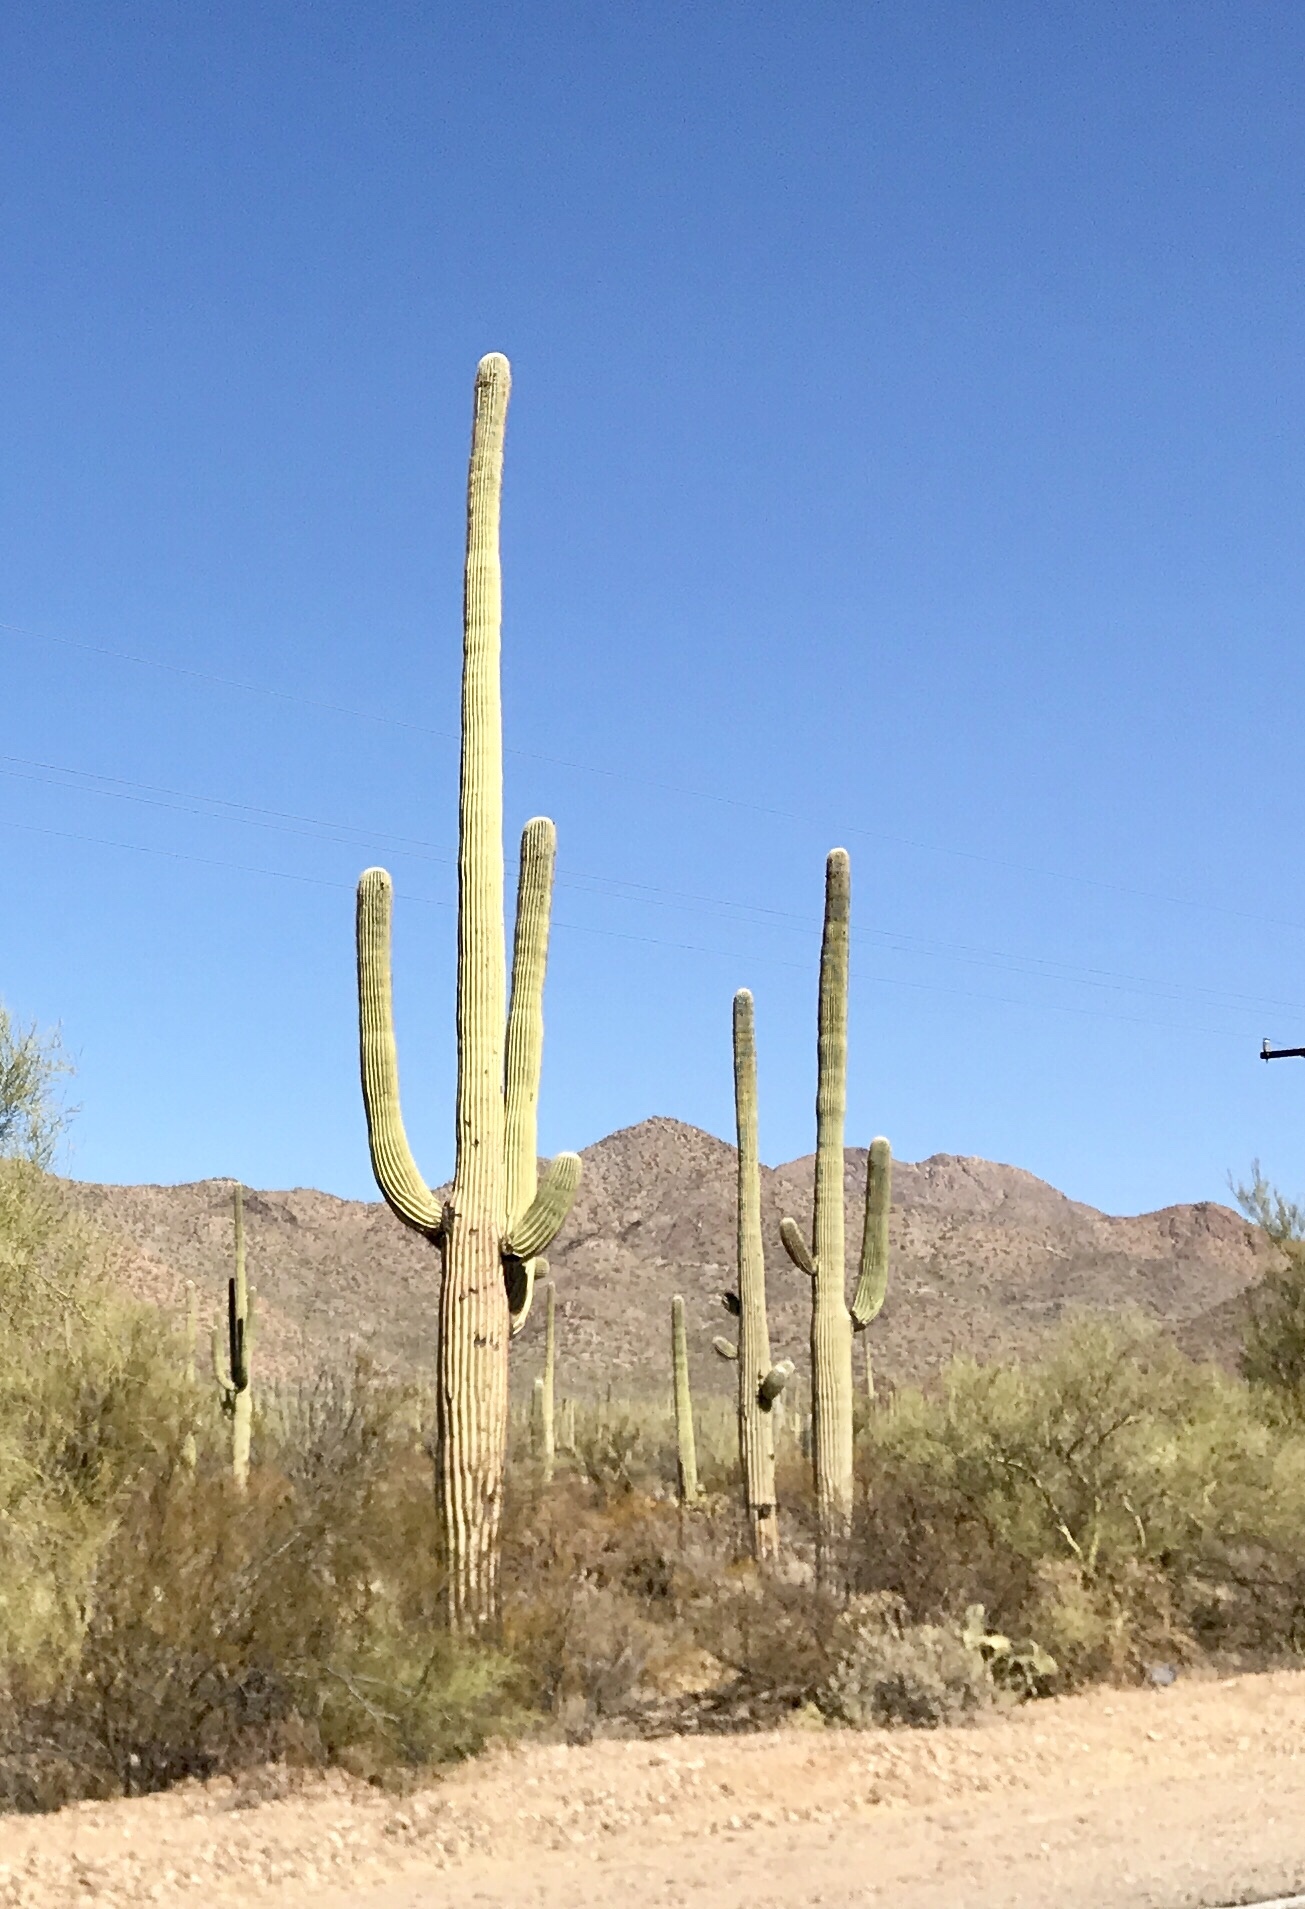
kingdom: Plantae
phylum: Tracheophyta
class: Magnoliopsida
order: Caryophyllales
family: Cactaceae
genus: Carnegiea
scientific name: Carnegiea gigantea
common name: Saguaro
